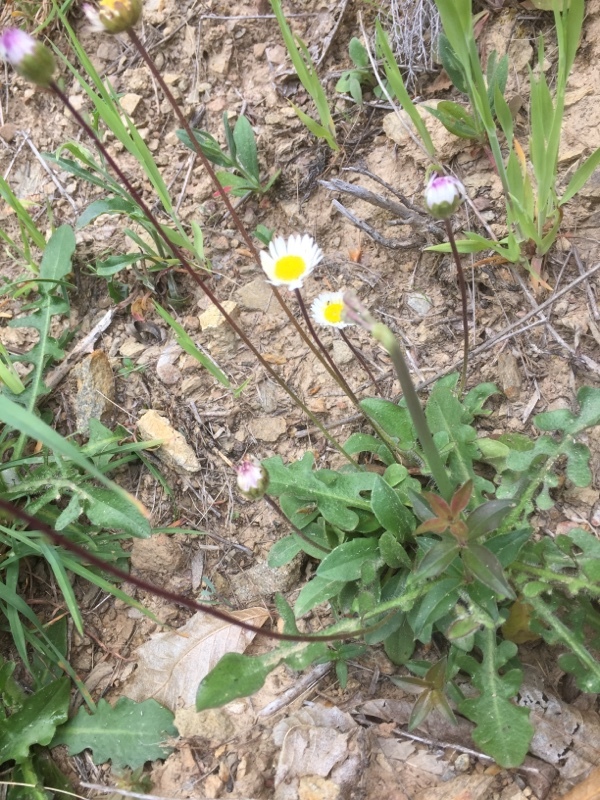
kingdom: Plantae
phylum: Tracheophyta
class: Magnoliopsida
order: Asterales
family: Asteraceae
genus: Bellis
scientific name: Bellis sylvestris
